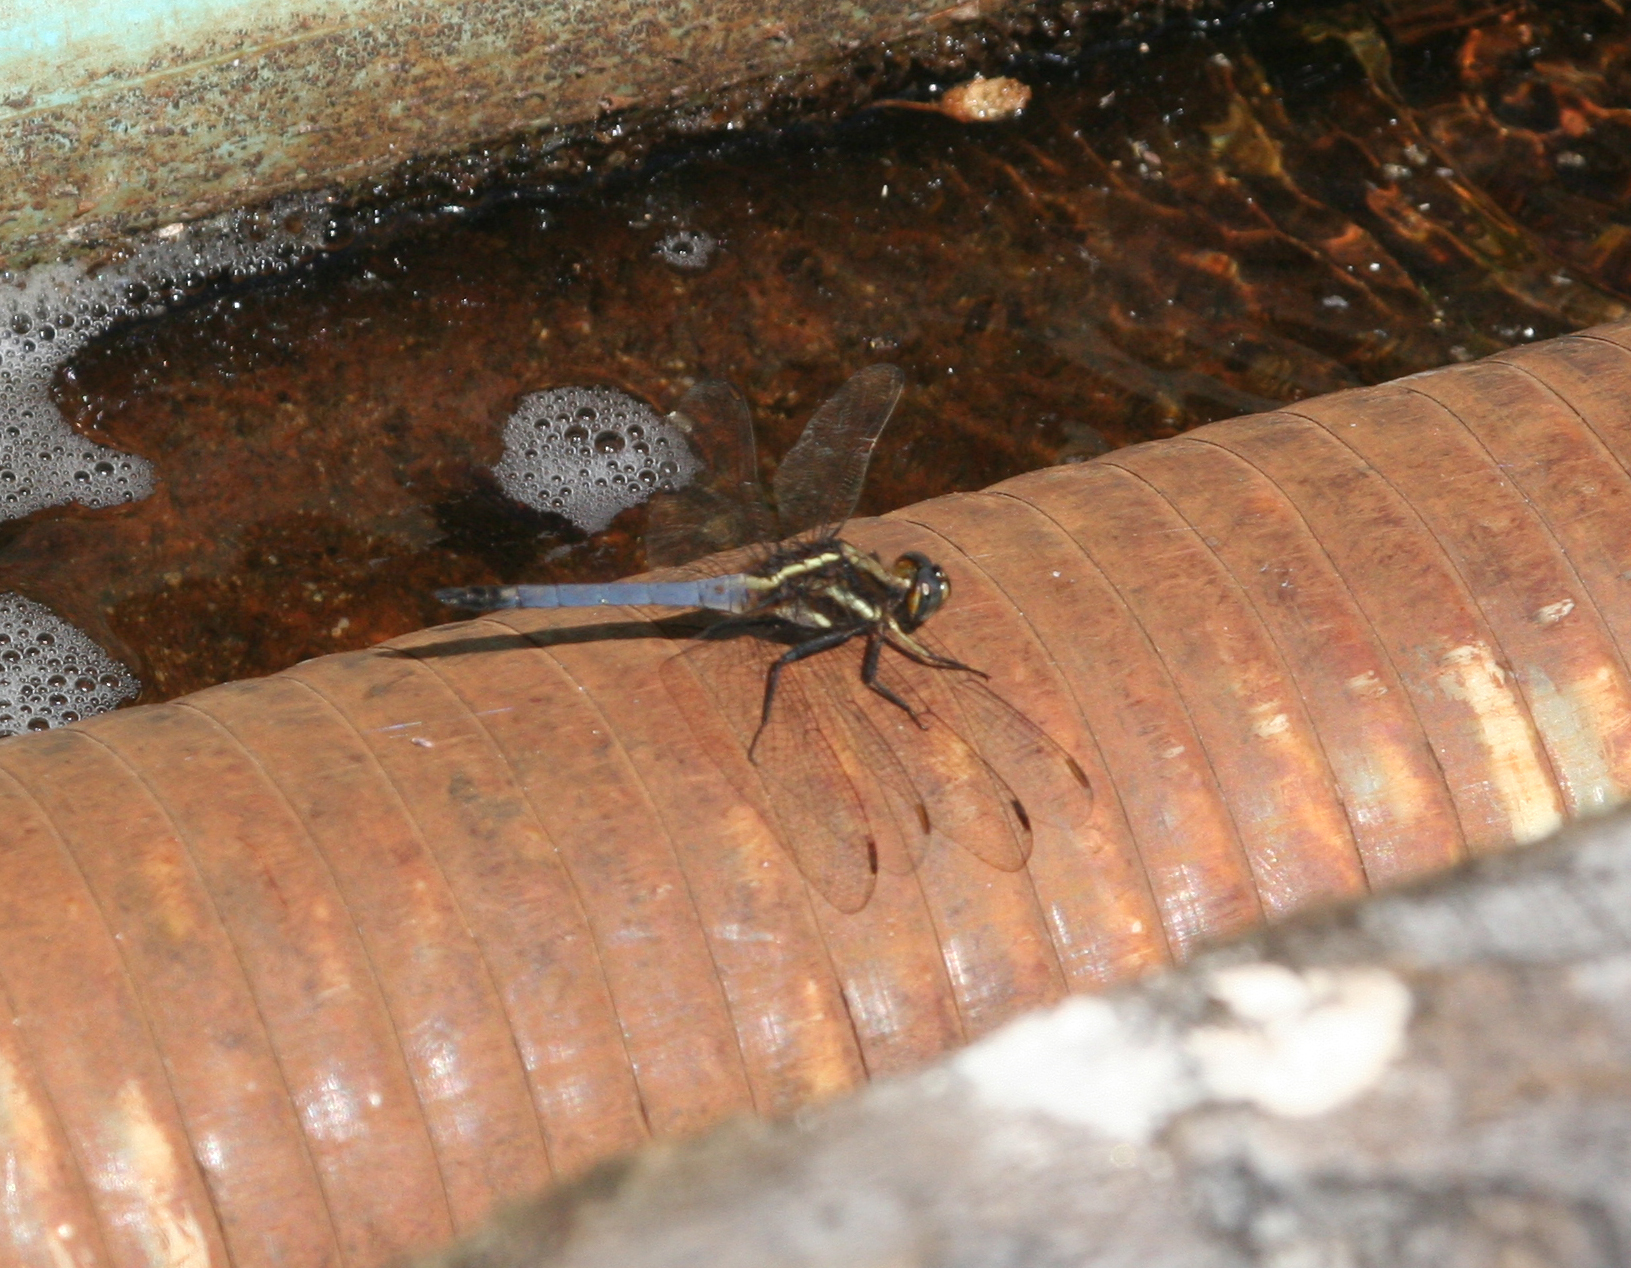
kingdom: Animalia
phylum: Arthropoda
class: Insecta
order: Odonata
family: Libellulidae
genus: Orthetrum
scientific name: Orthetrum glaucum
